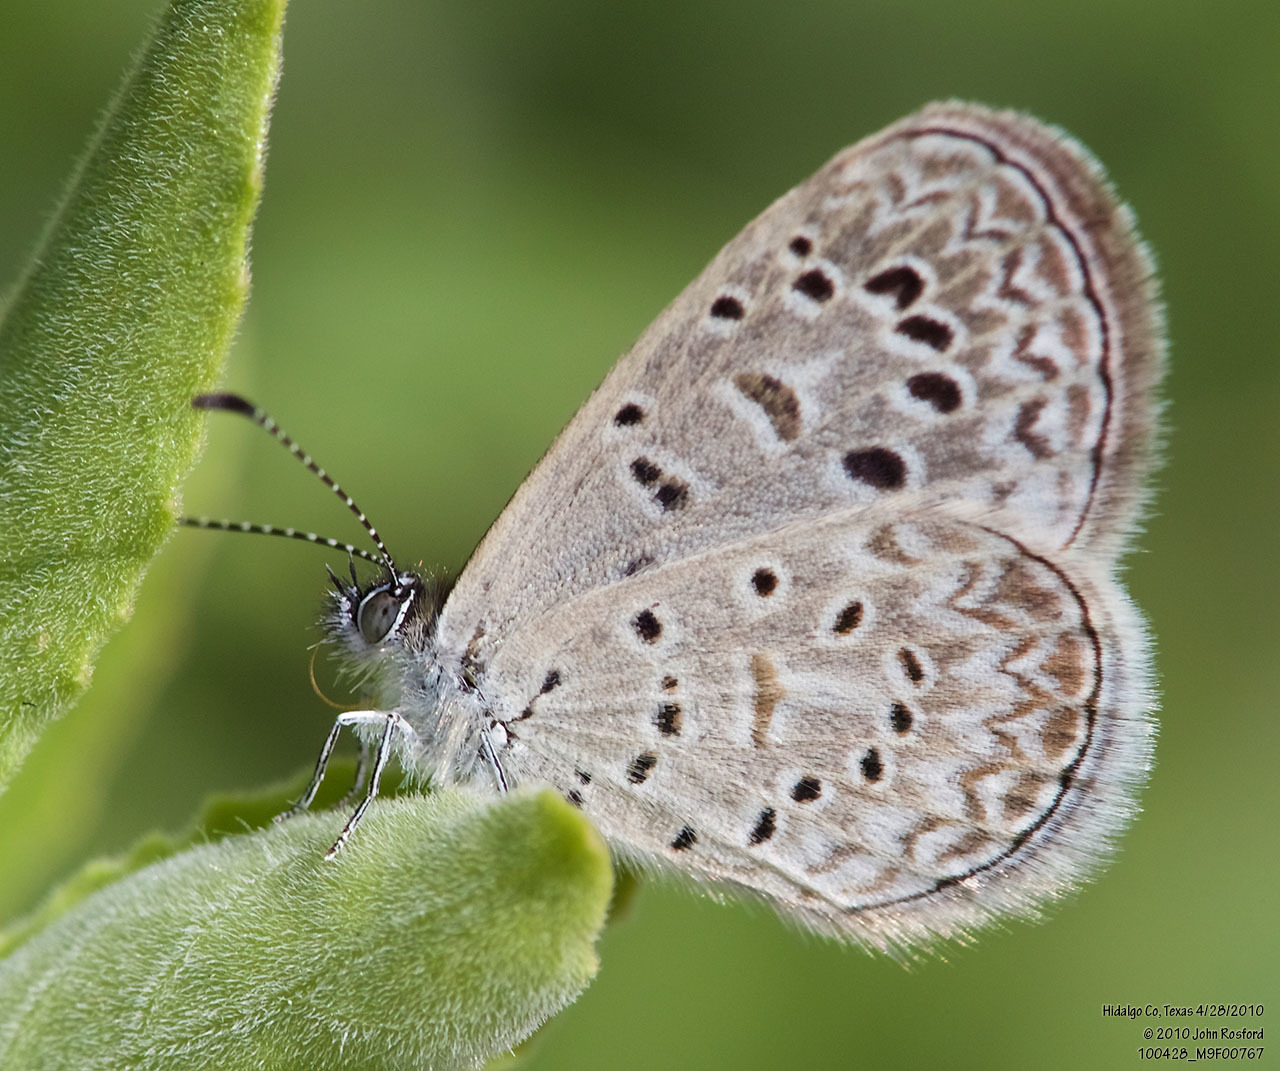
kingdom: Animalia
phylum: Arthropoda
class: Insecta
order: Lepidoptera
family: Lycaenidae
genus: Lycaena
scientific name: Lycaena cyna
